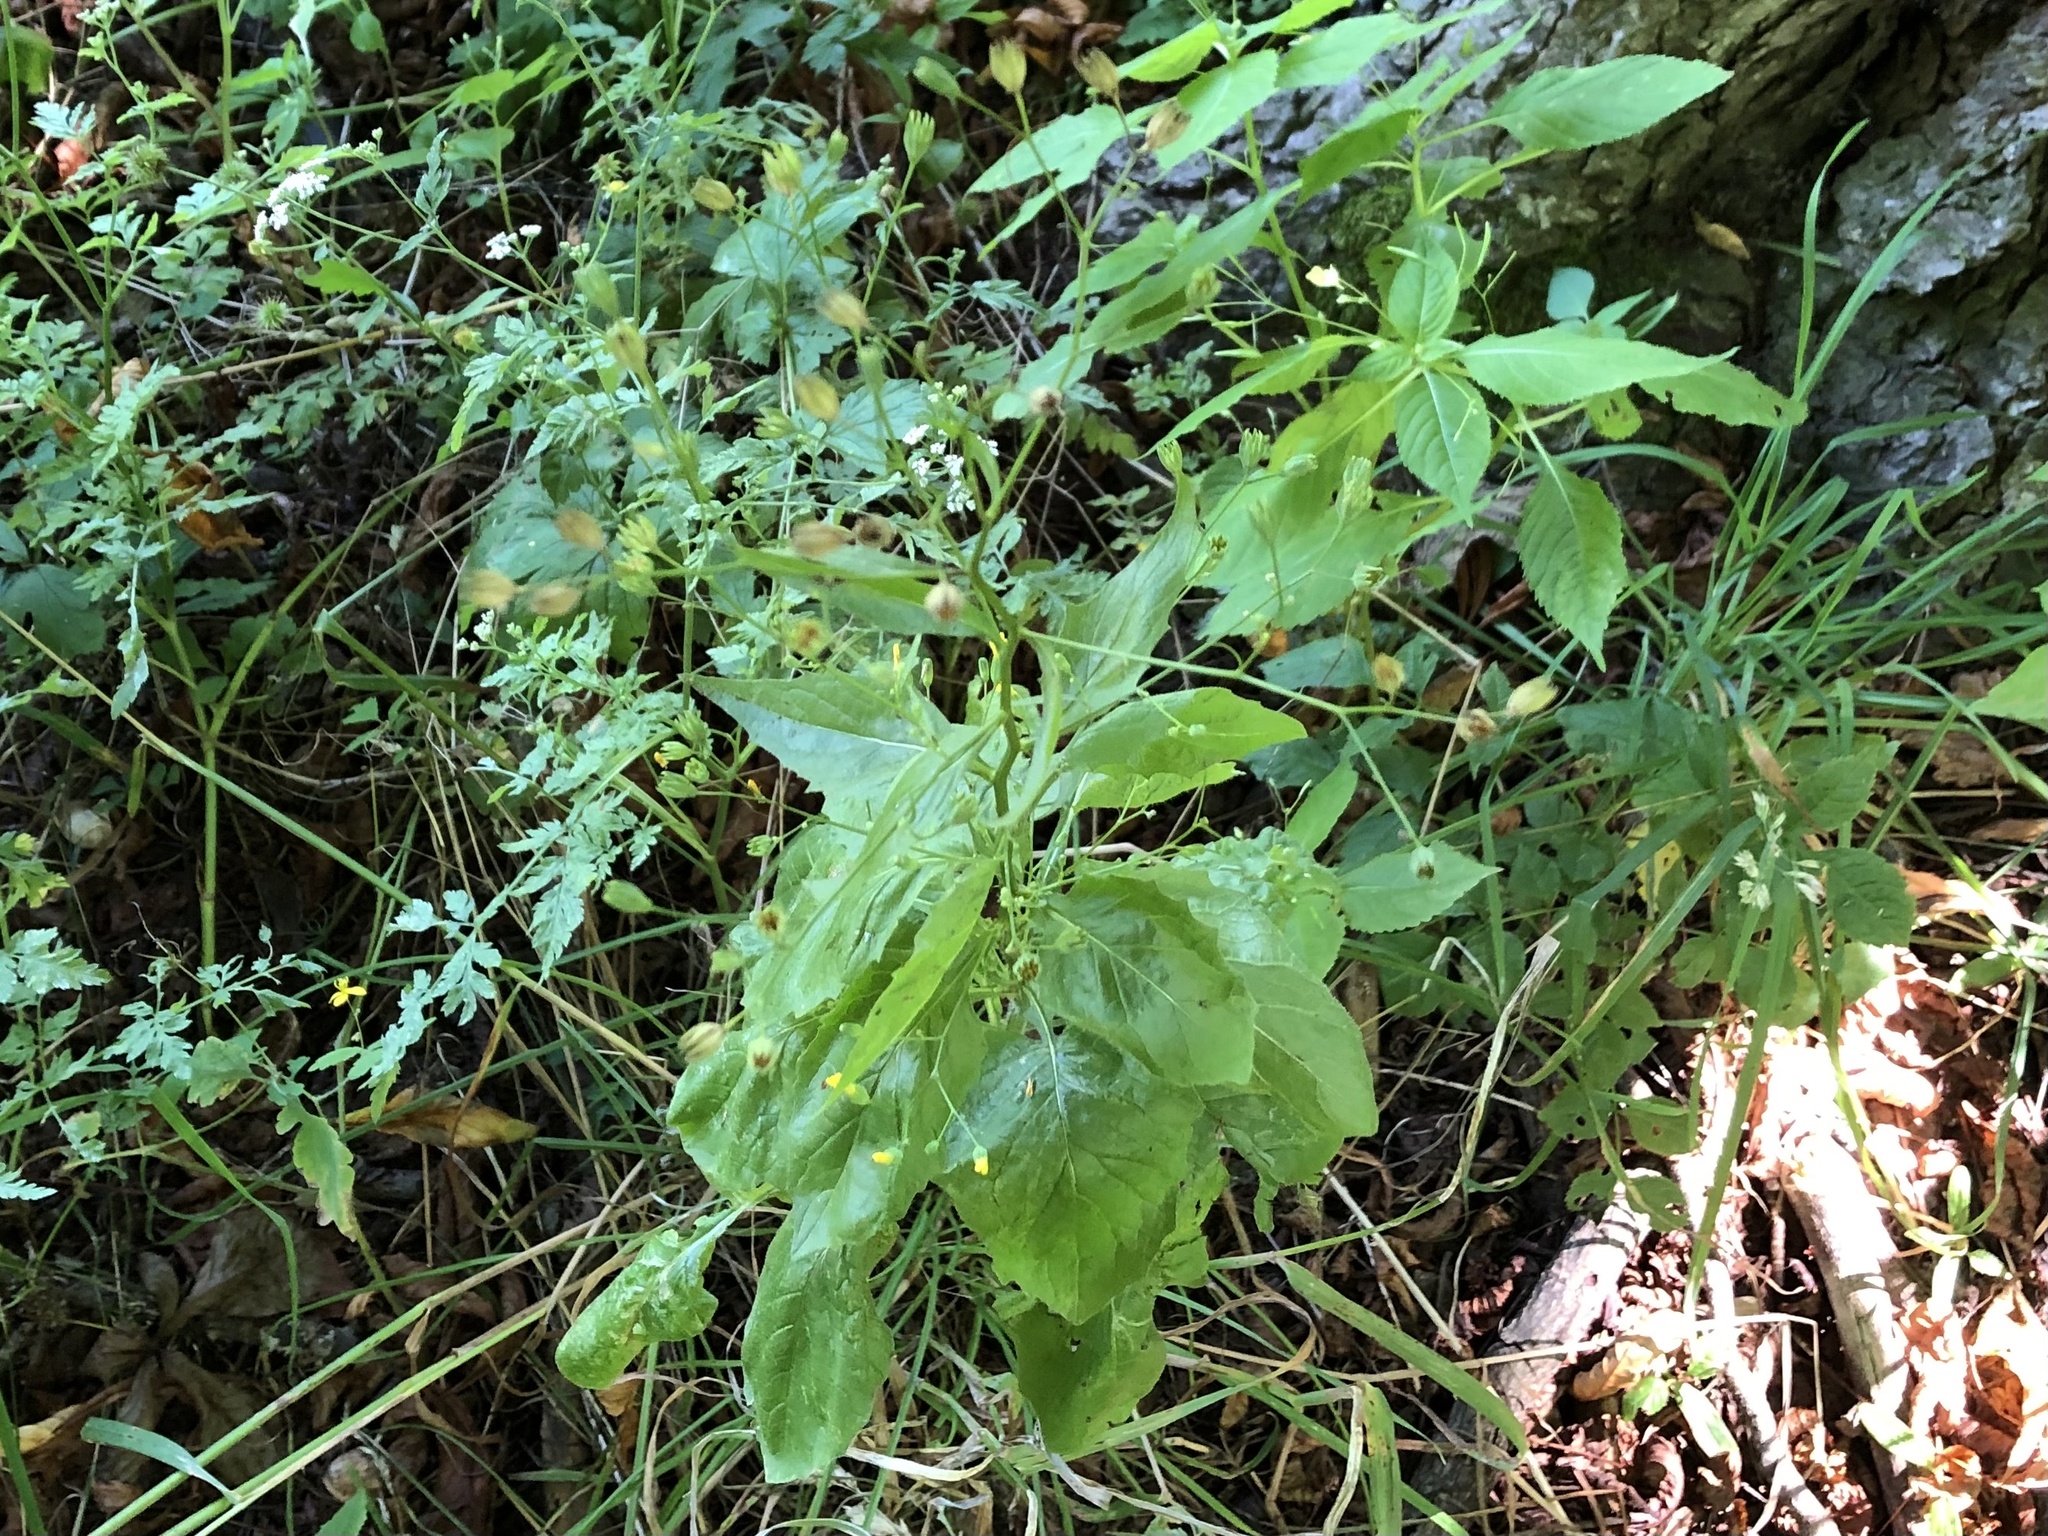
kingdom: Plantae
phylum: Tracheophyta
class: Magnoliopsida
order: Asterales
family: Asteraceae
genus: Lapsana
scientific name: Lapsana communis
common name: Nipplewort
